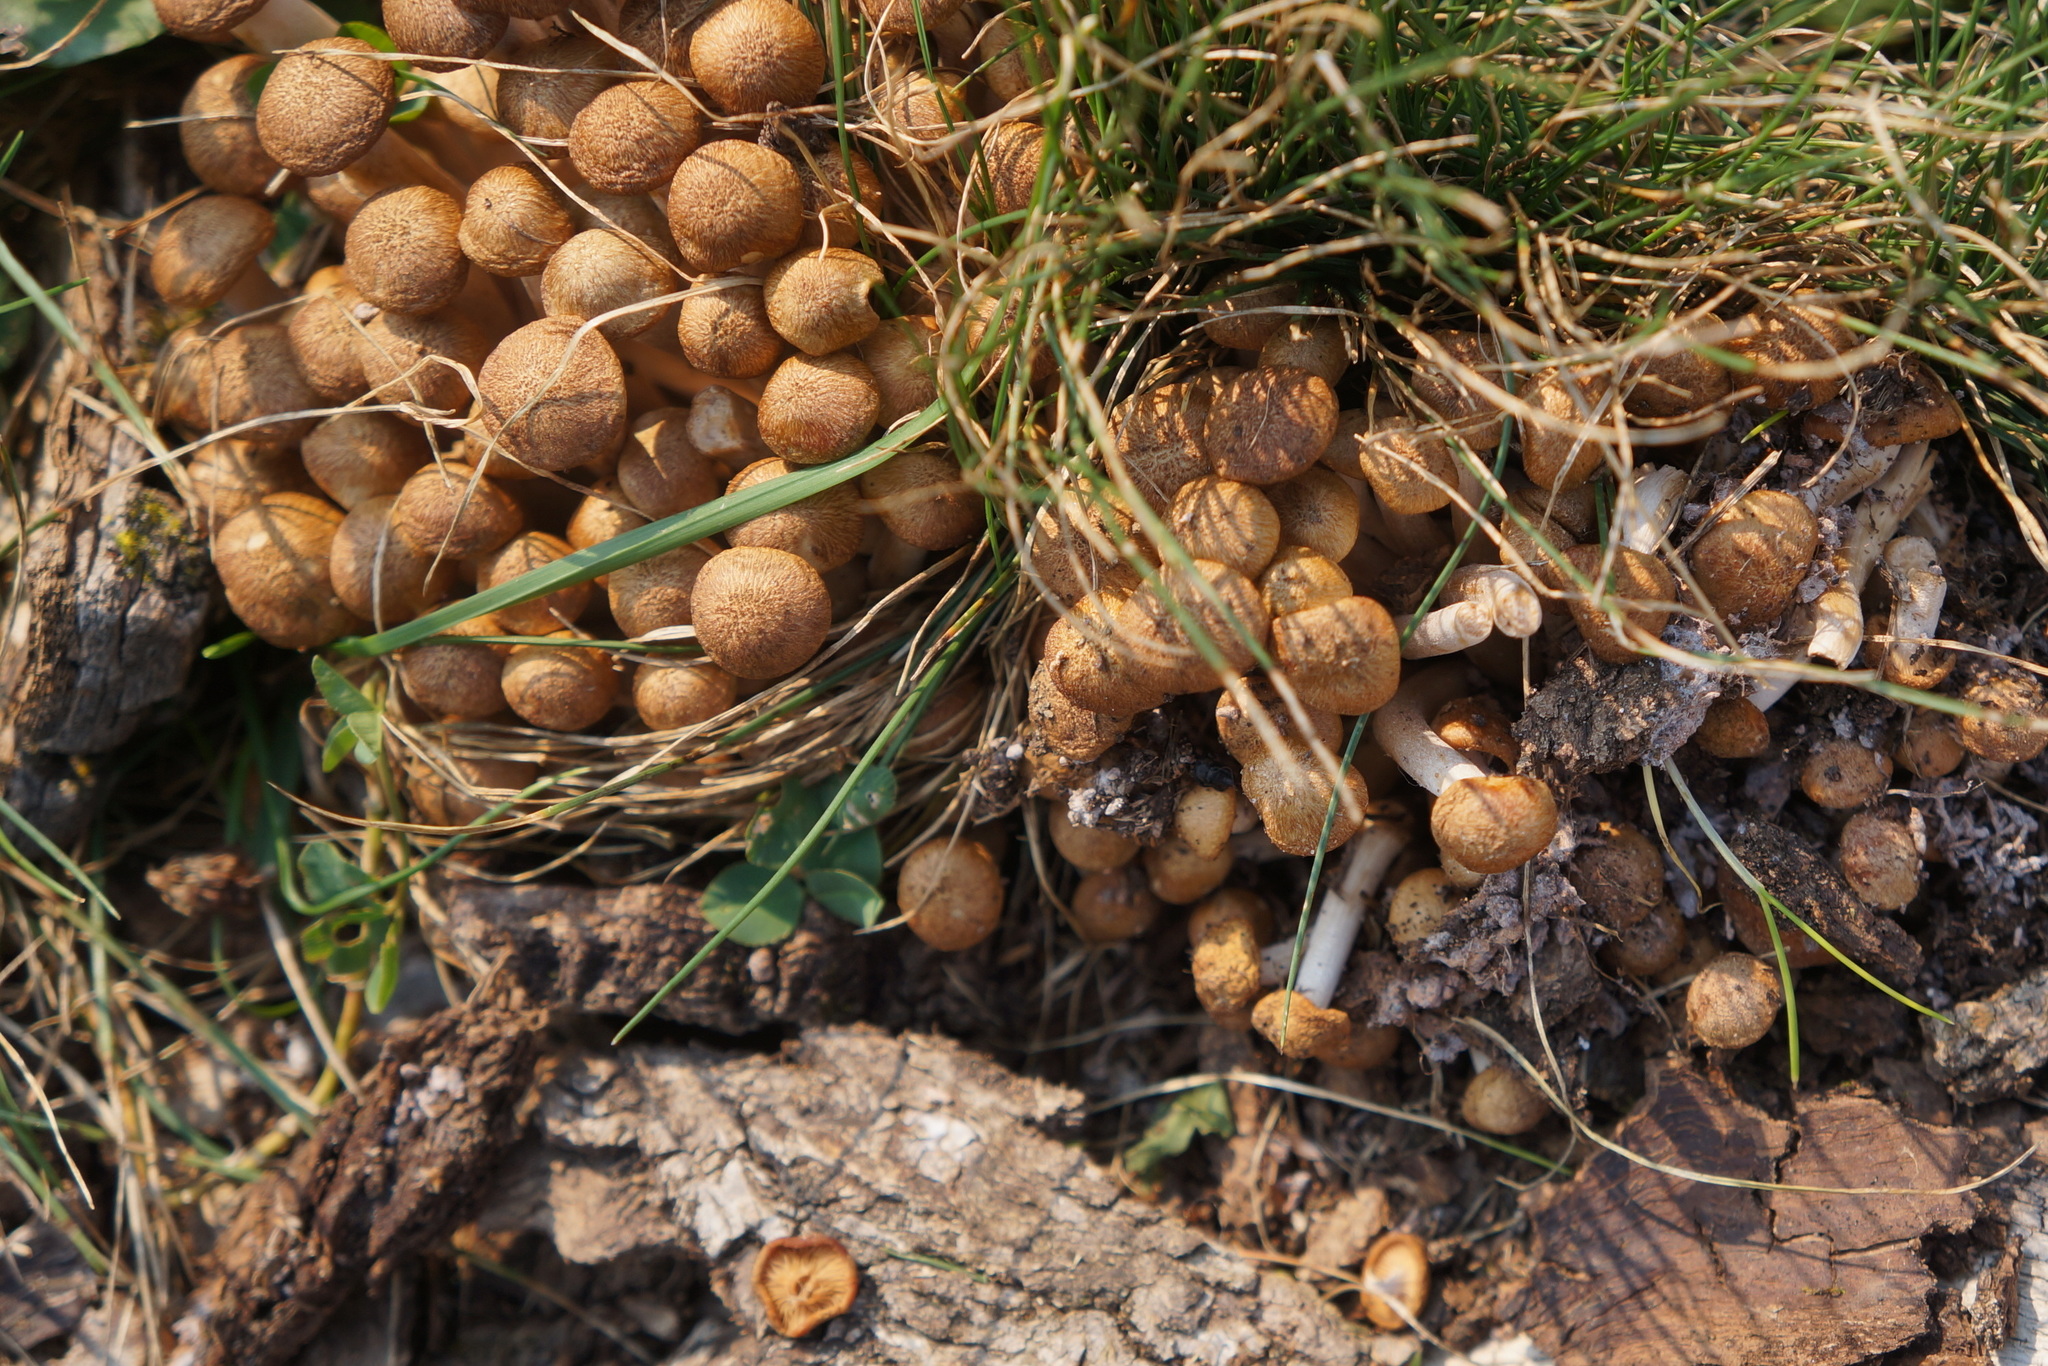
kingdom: Fungi
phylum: Basidiomycota
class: Agaricomycetes
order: Agaricales
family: Physalacriaceae
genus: Desarmillaria
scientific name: Desarmillaria caespitosa
